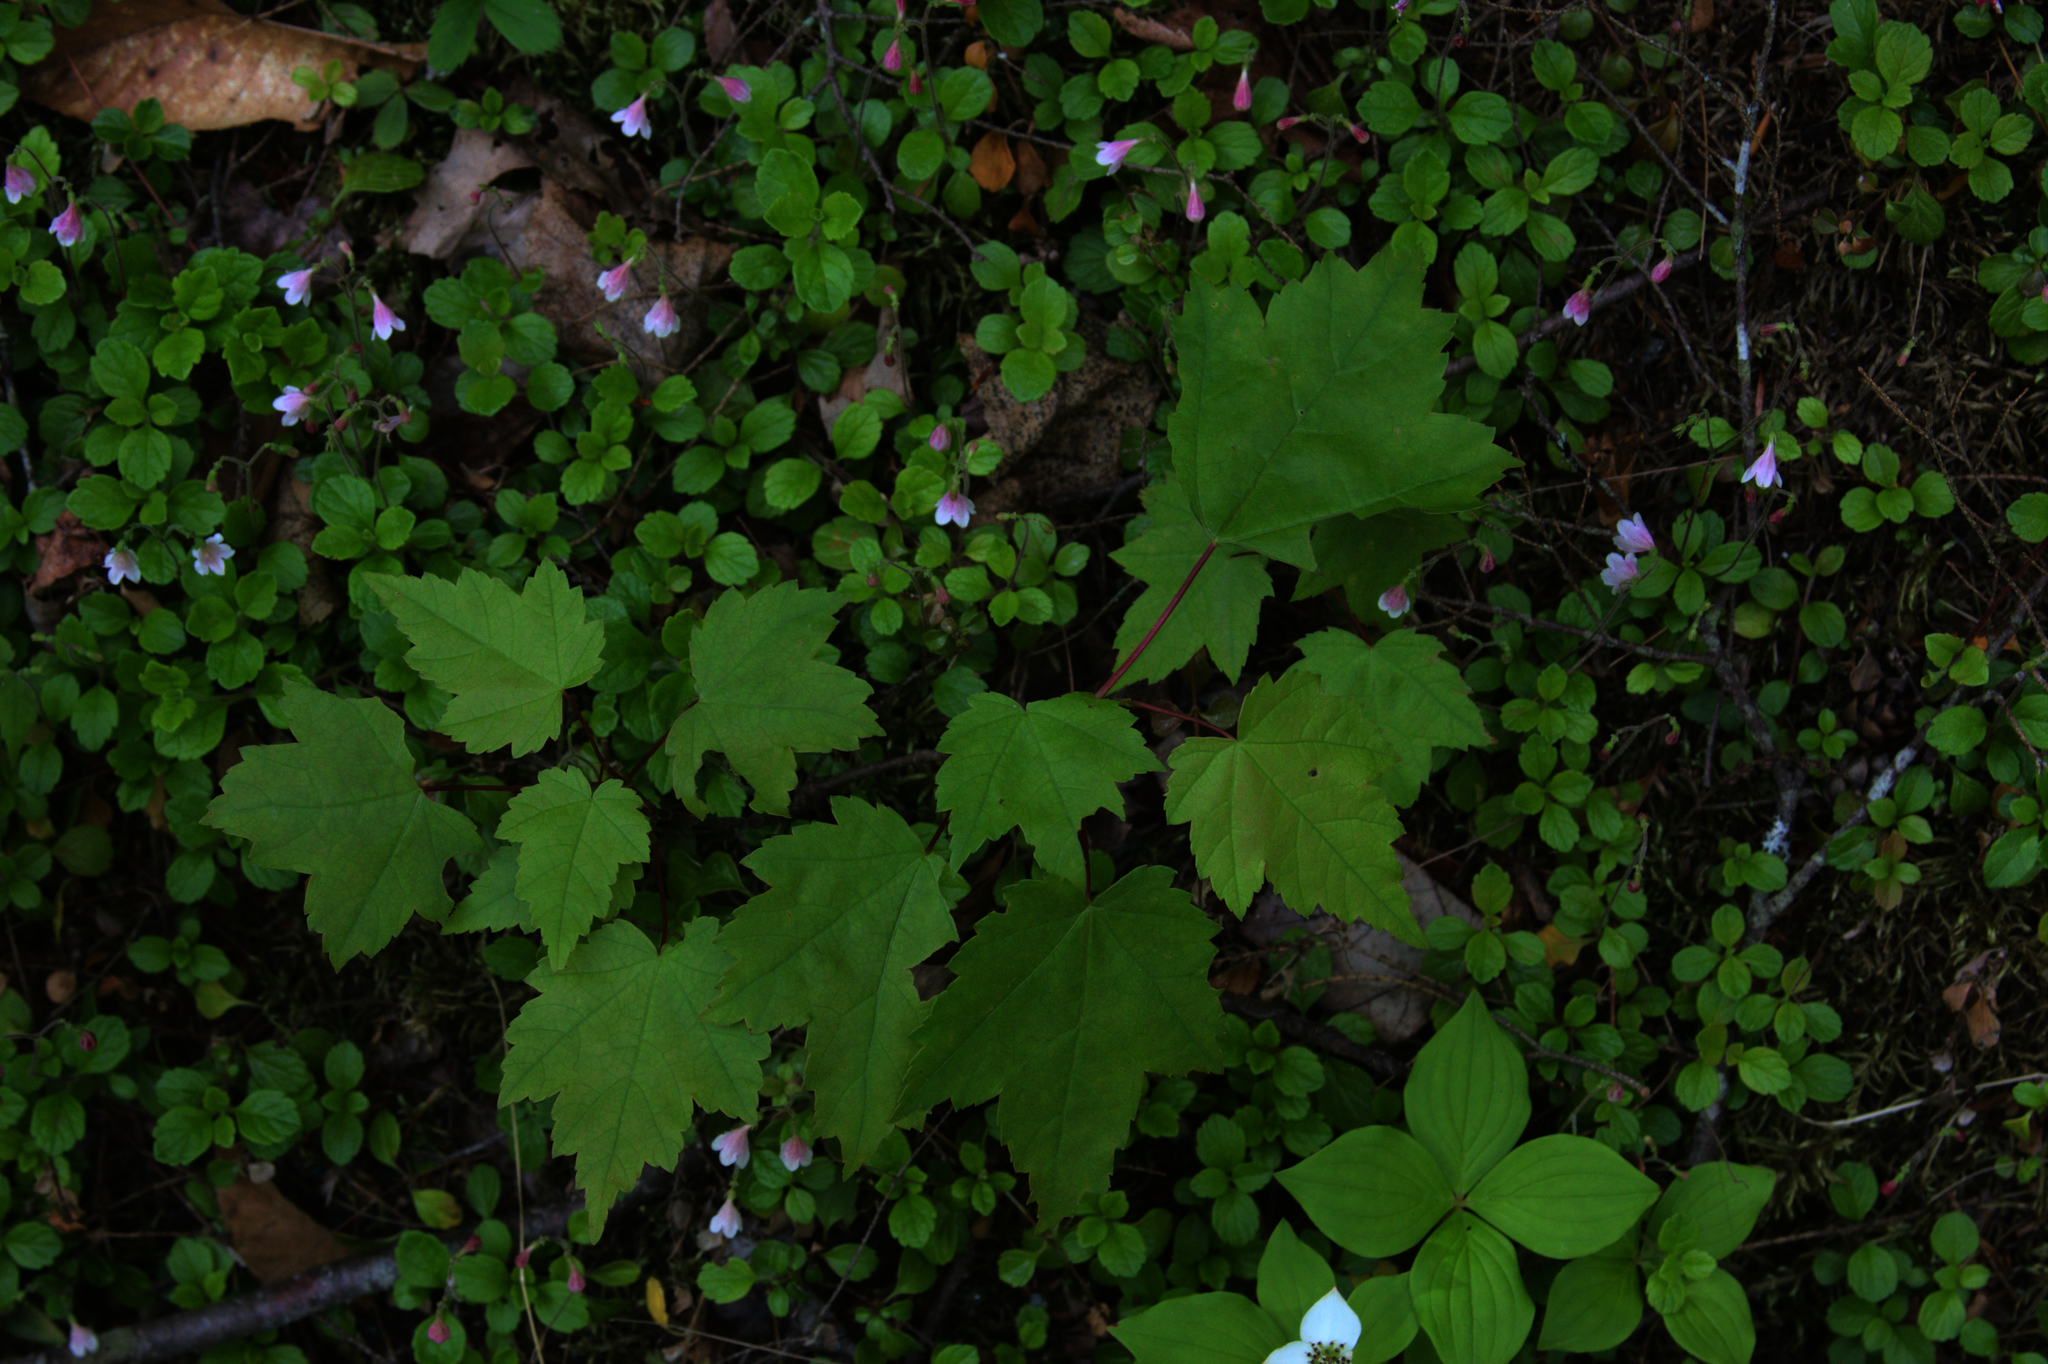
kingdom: Plantae
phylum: Tracheophyta
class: Magnoliopsida
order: Sapindales
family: Sapindaceae
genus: Acer
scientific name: Acer rubrum
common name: Red maple
